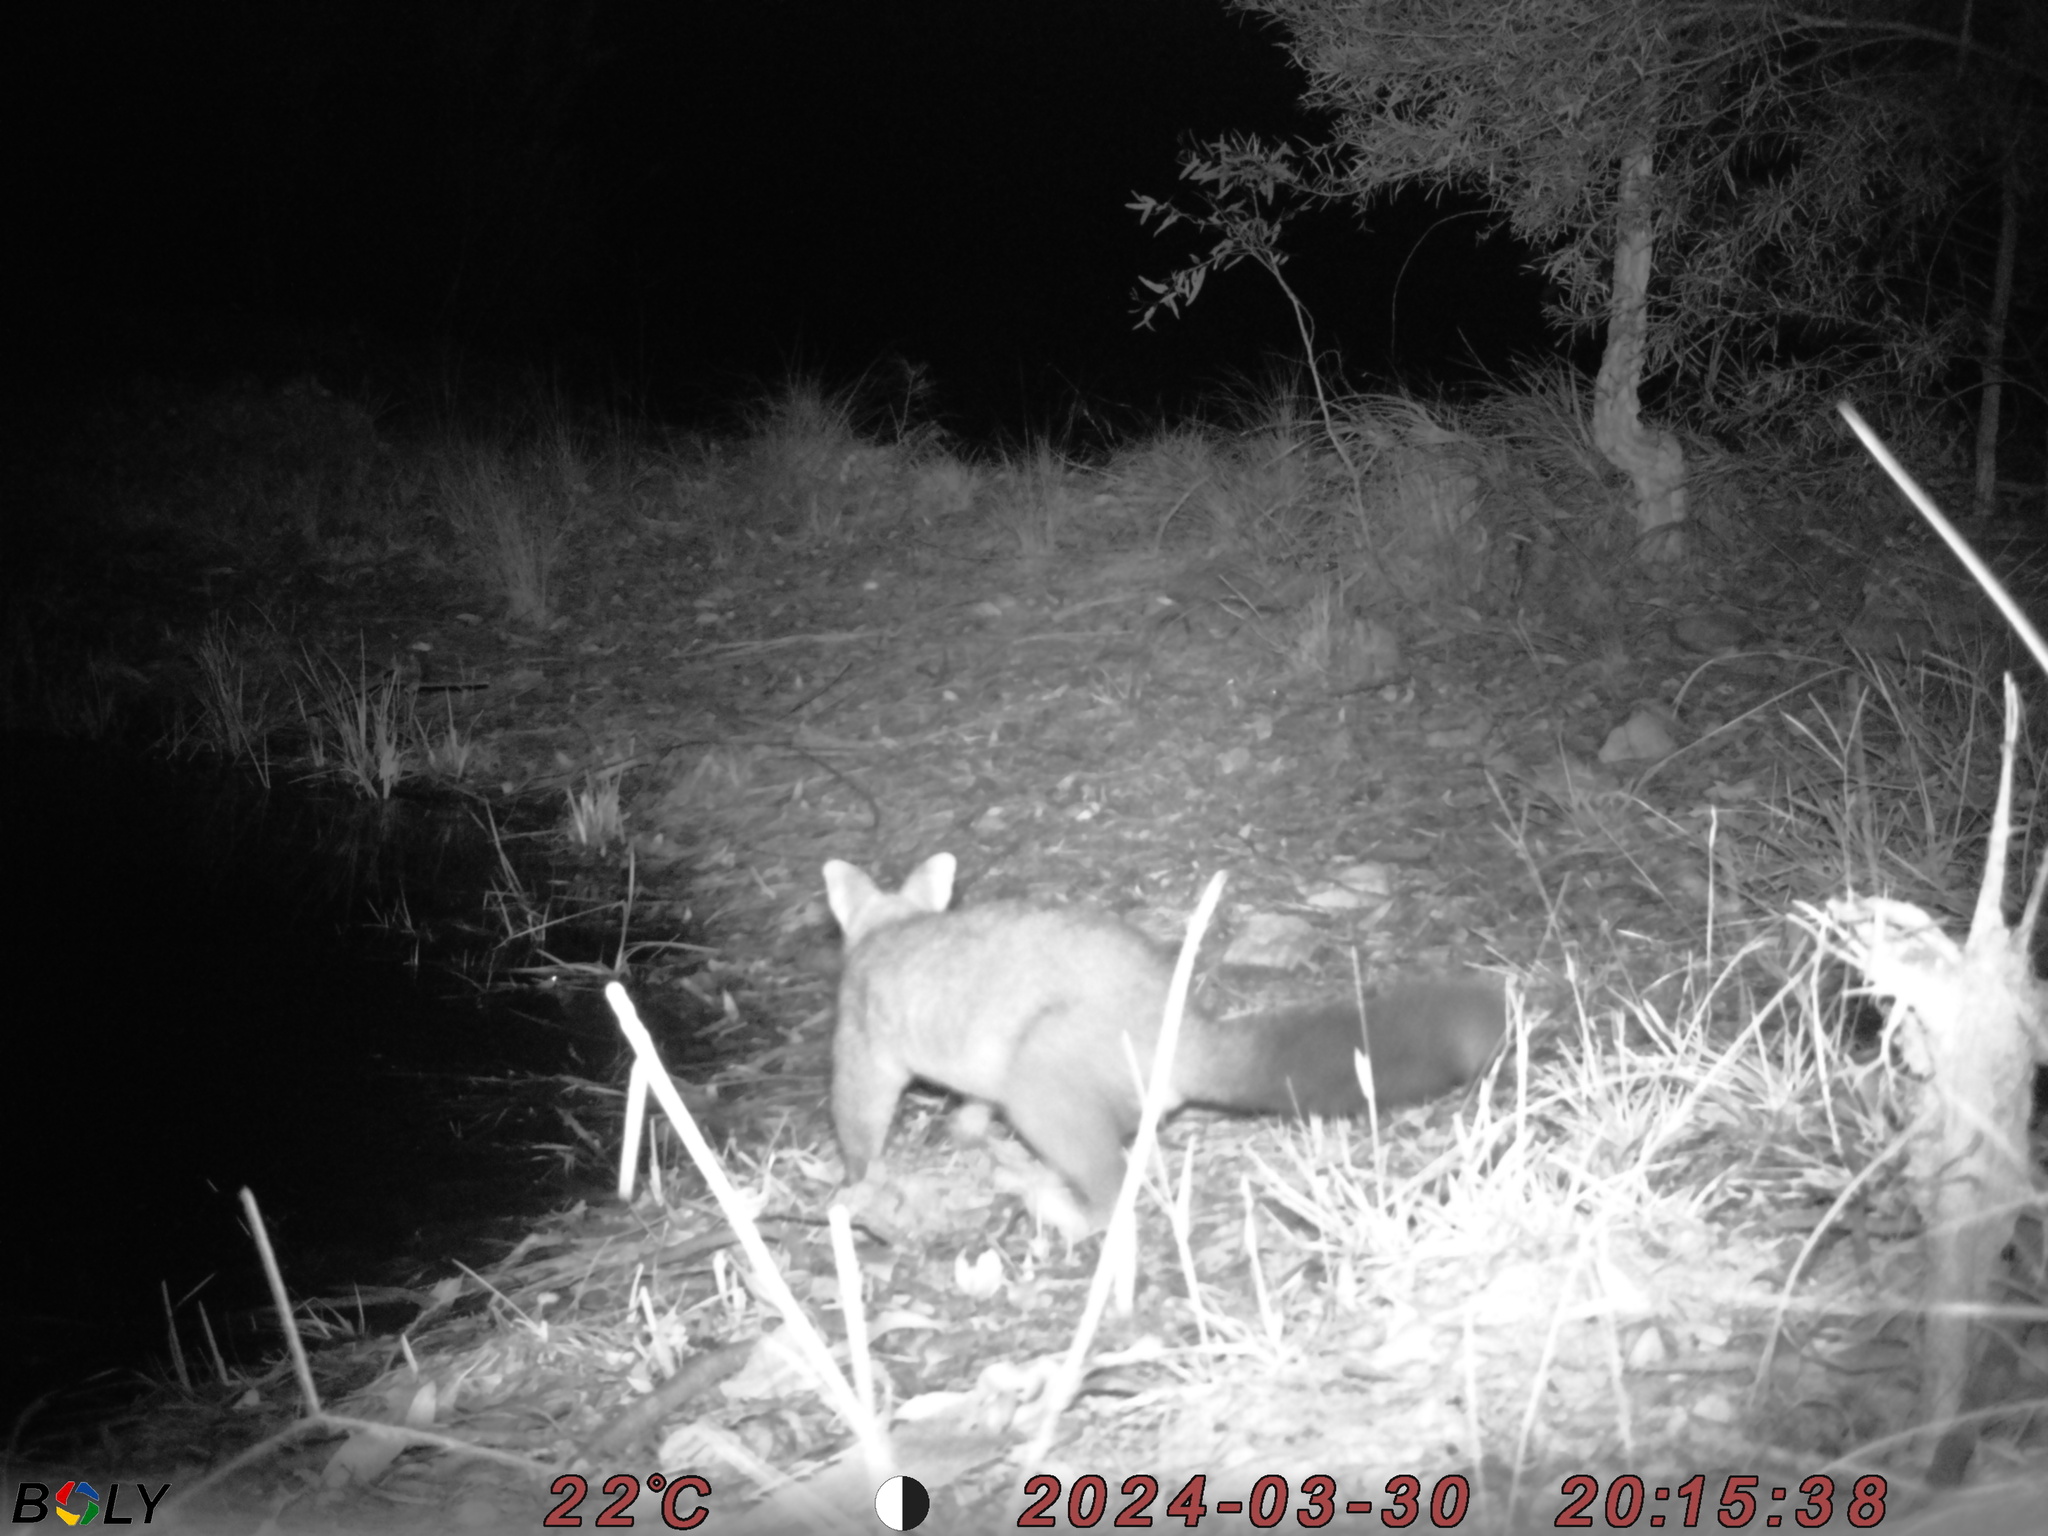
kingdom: Animalia
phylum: Chordata
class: Mammalia
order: Diprotodontia
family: Phalangeridae
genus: Trichosurus
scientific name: Trichosurus vulpecula
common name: Common brushtail
